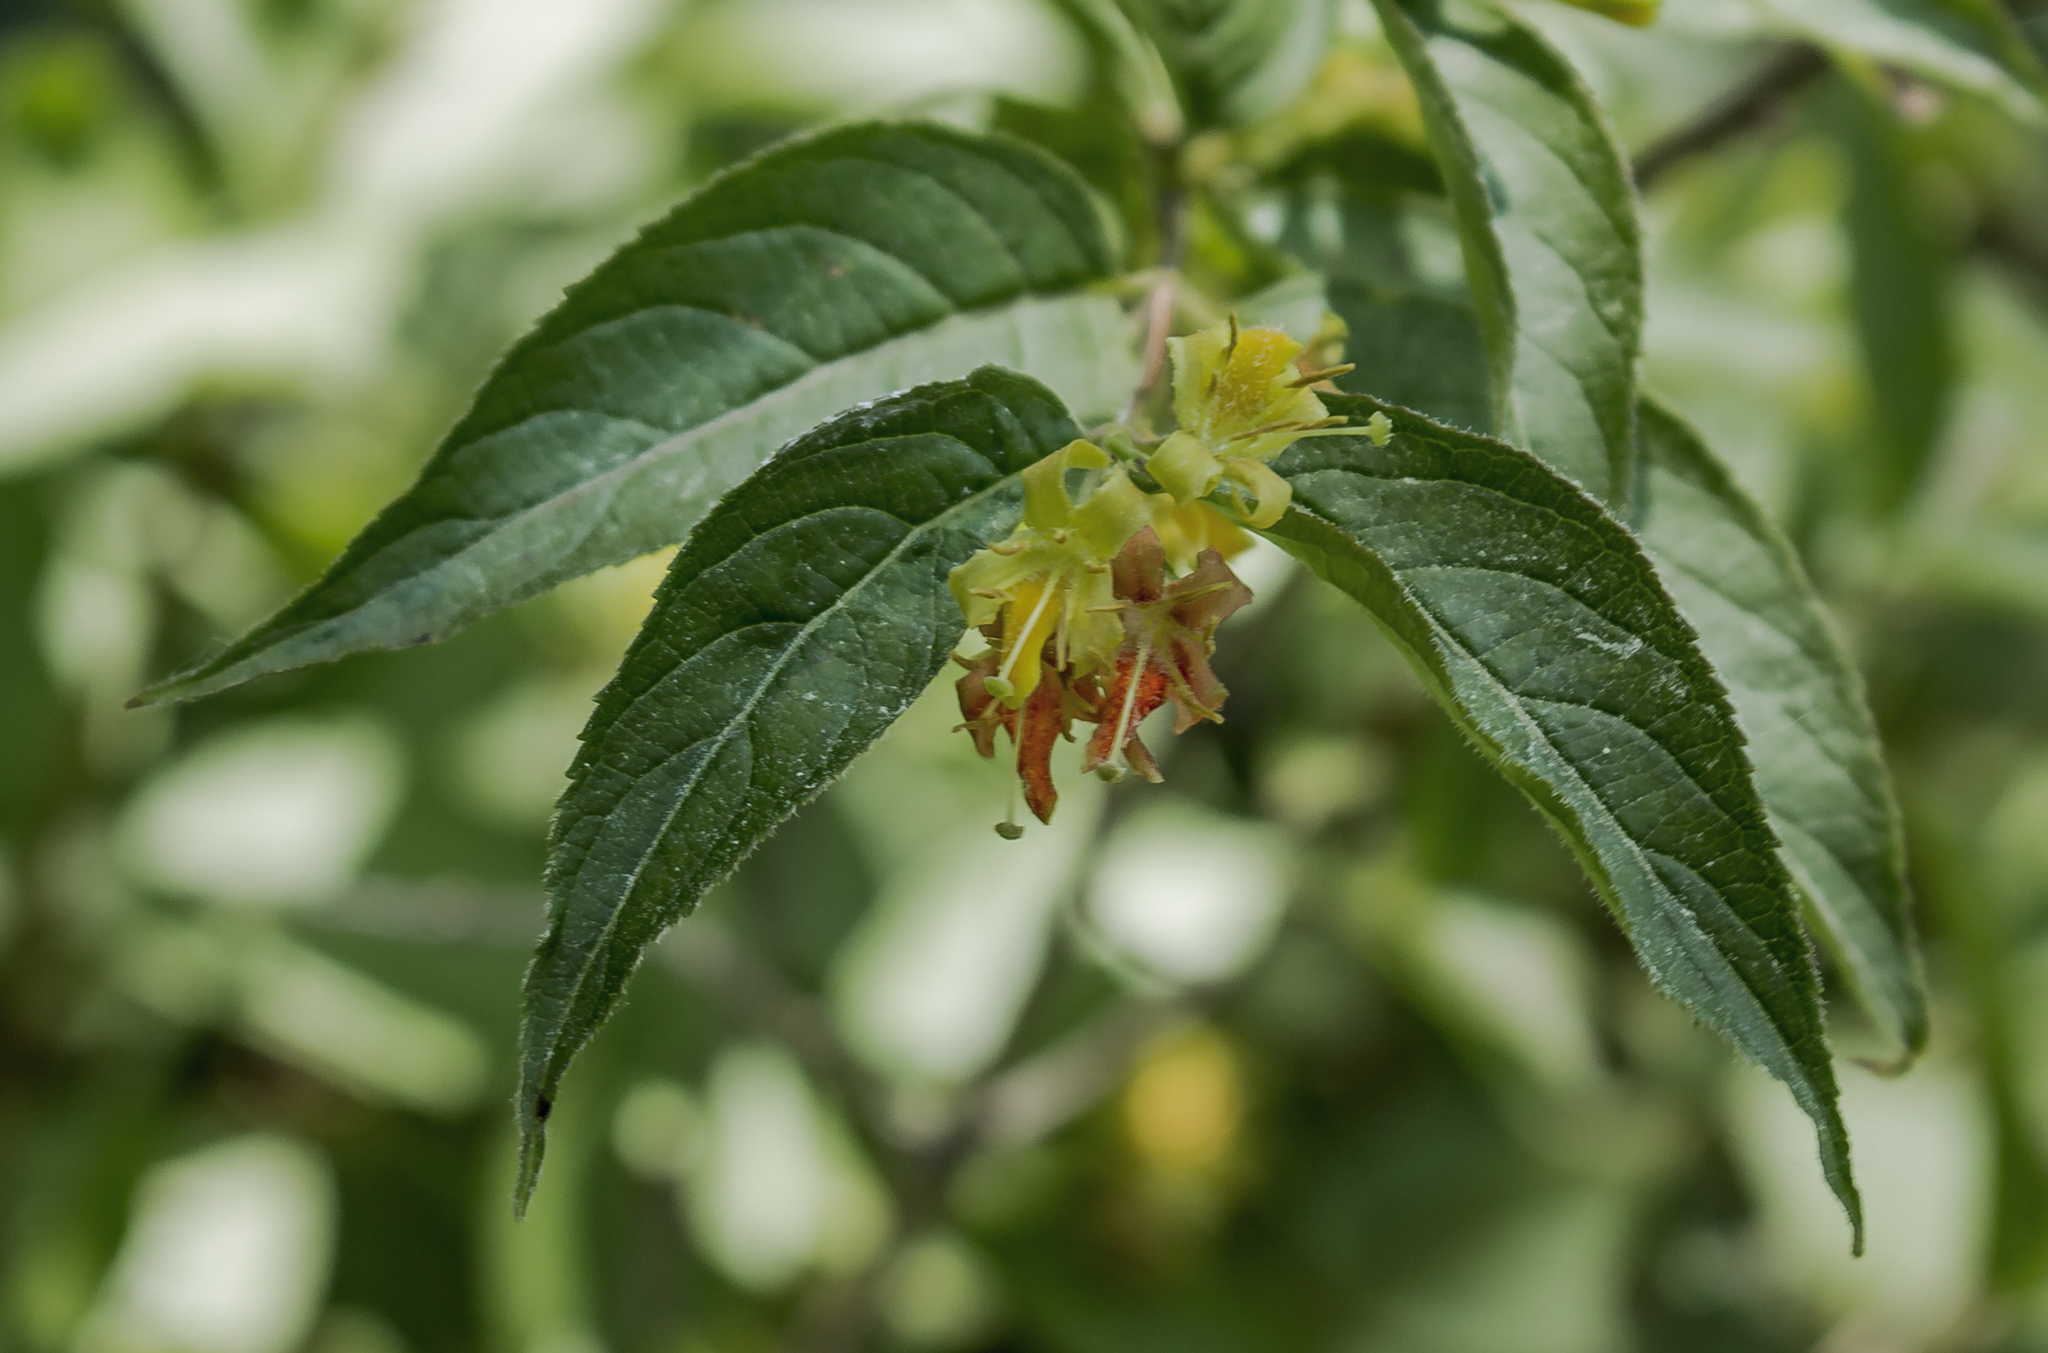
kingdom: Plantae
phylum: Tracheophyta
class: Magnoliopsida
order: Dipsacales
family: Caprifoliaceae
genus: Diervilla
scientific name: Diervilla lonicera
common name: Bush-honeysuckle
